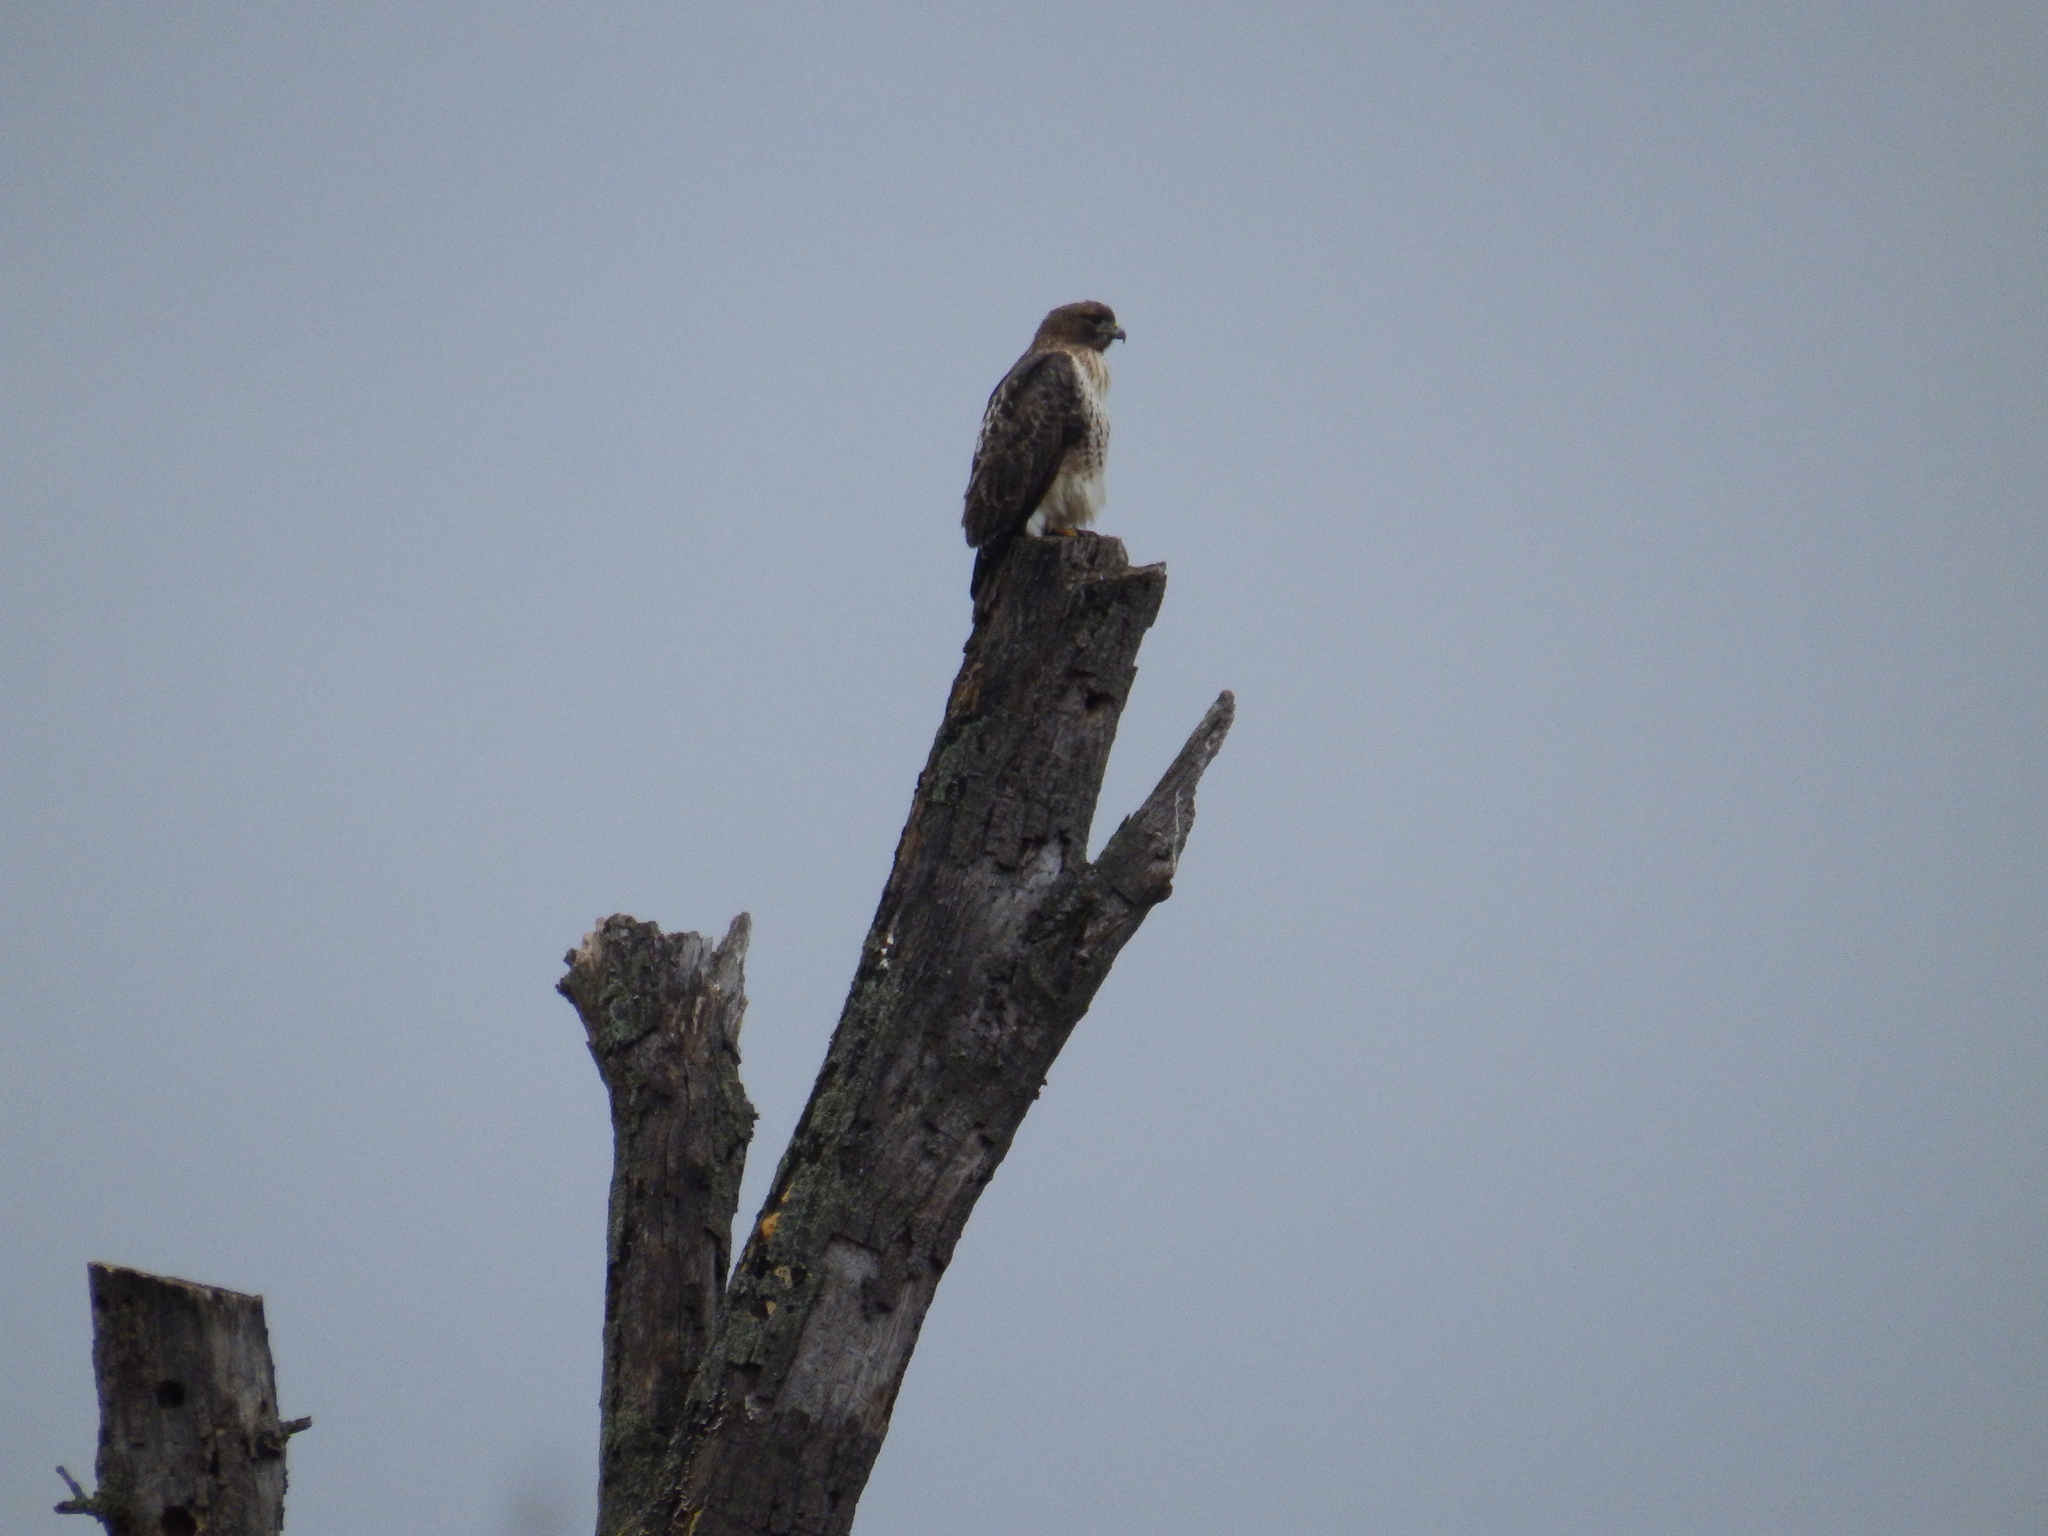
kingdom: Animalia
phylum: Chordata
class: Aves
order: Accipitriformes
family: Accipitridae
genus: Buteo
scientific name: Buteo jamaicensis
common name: Red-tailed hawk
